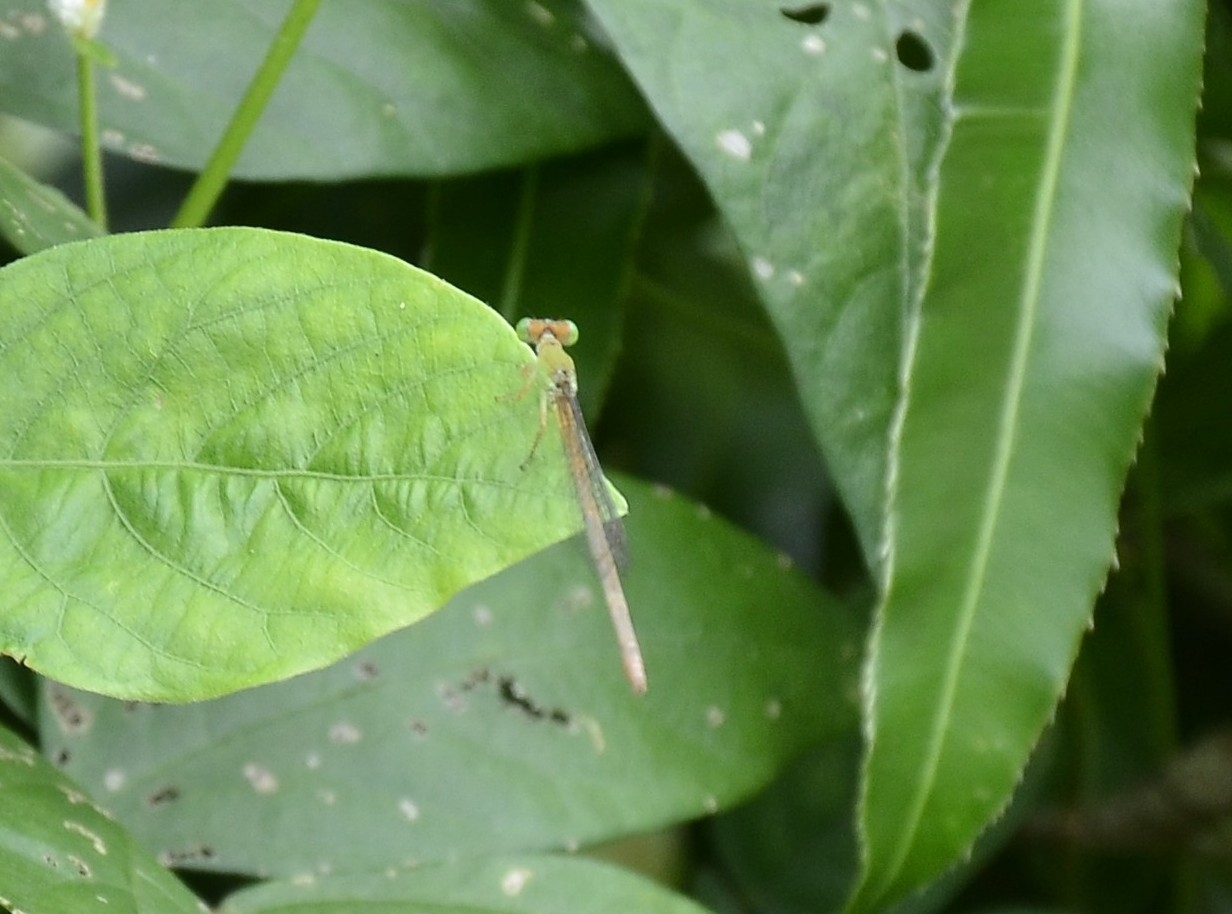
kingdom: Animalia
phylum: Arthropoda
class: Insecta
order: Odonata
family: Coenagrionidae
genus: Ceriagrion
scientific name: Ceriagrion coromandelianum
